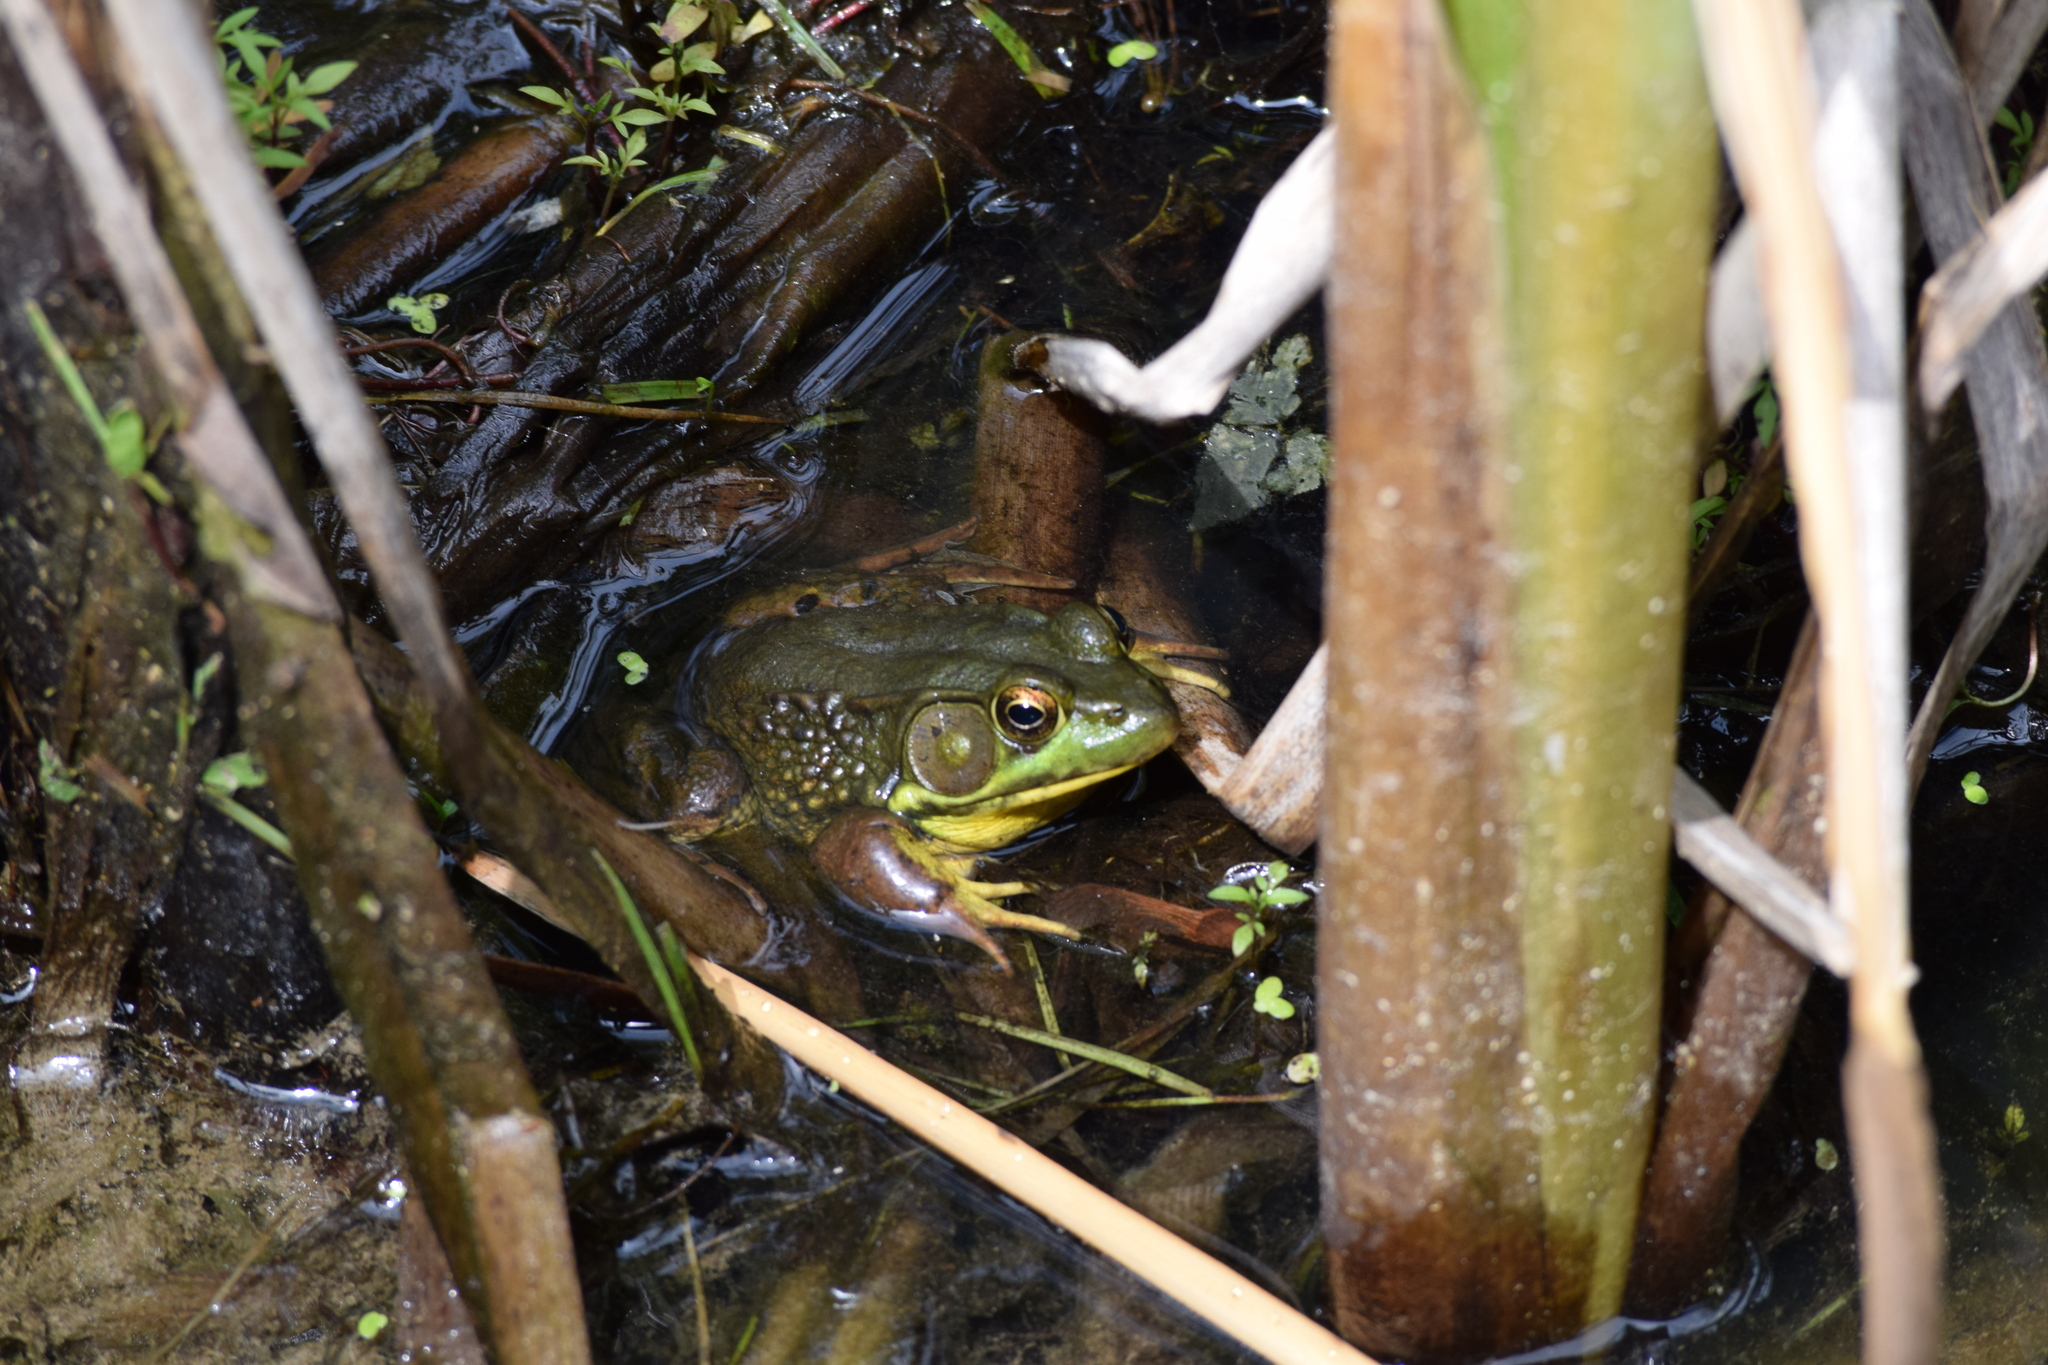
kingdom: Animalia
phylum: Chordata
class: Amphibia
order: Anura
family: Ranidae
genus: Lithobates
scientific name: Lithobates clamitans
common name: Green frog
